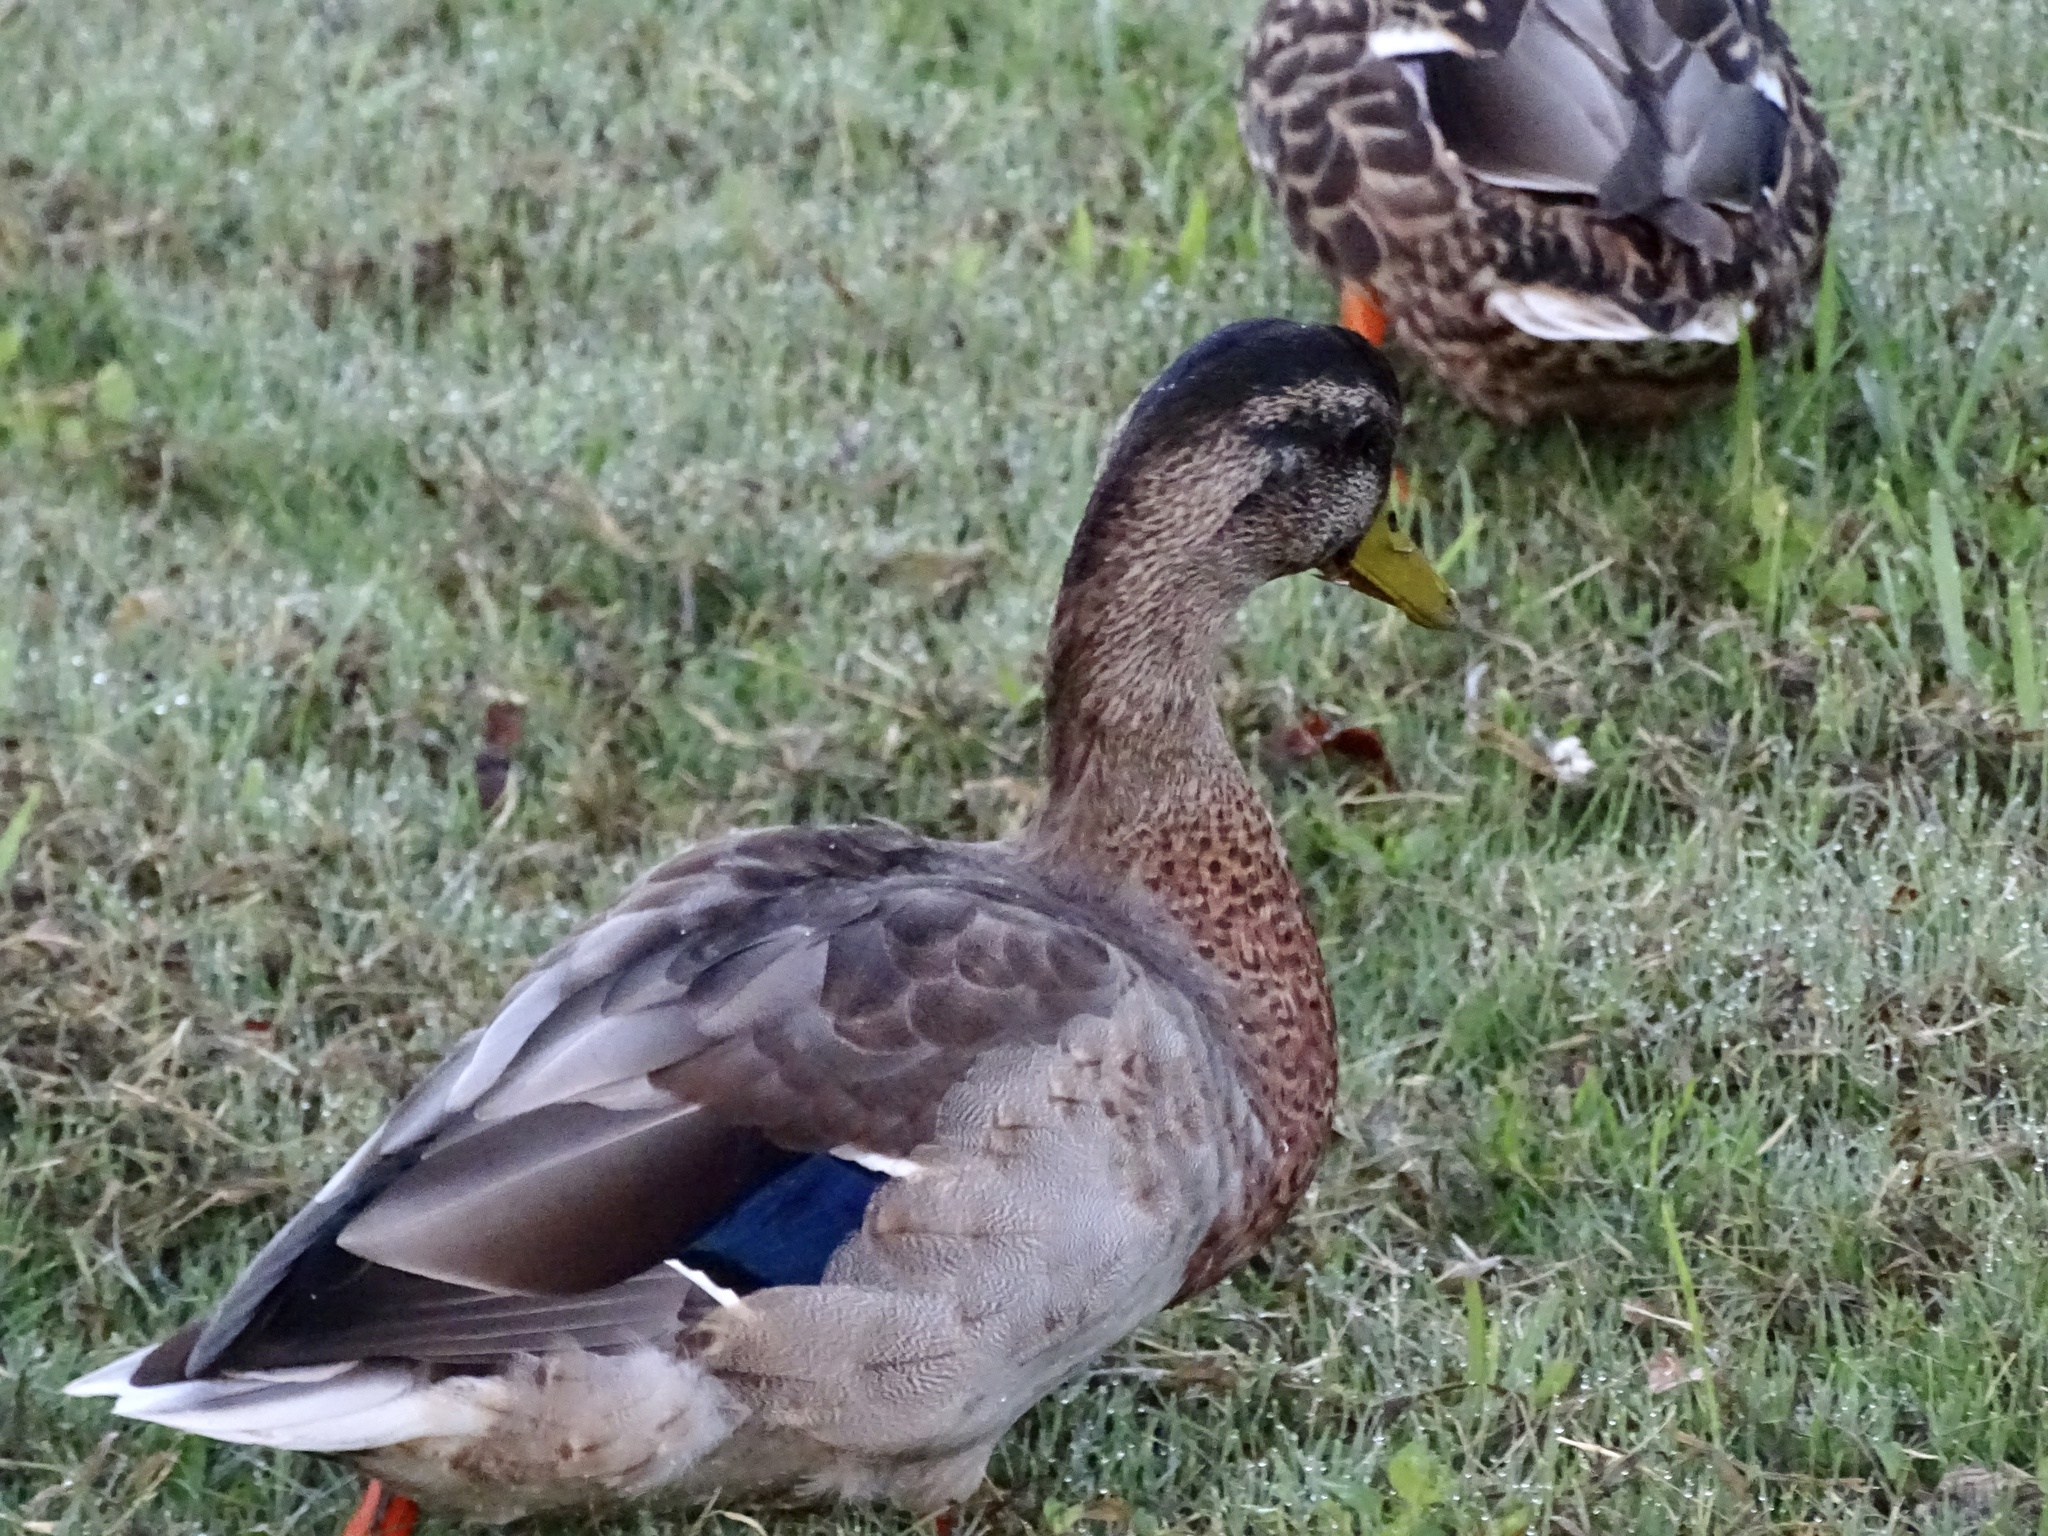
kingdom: Animalia
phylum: Chordata
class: Aves
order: Anseriformes
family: Anatidae
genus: Anas
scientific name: Anas platyrhynchos
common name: Mallard
